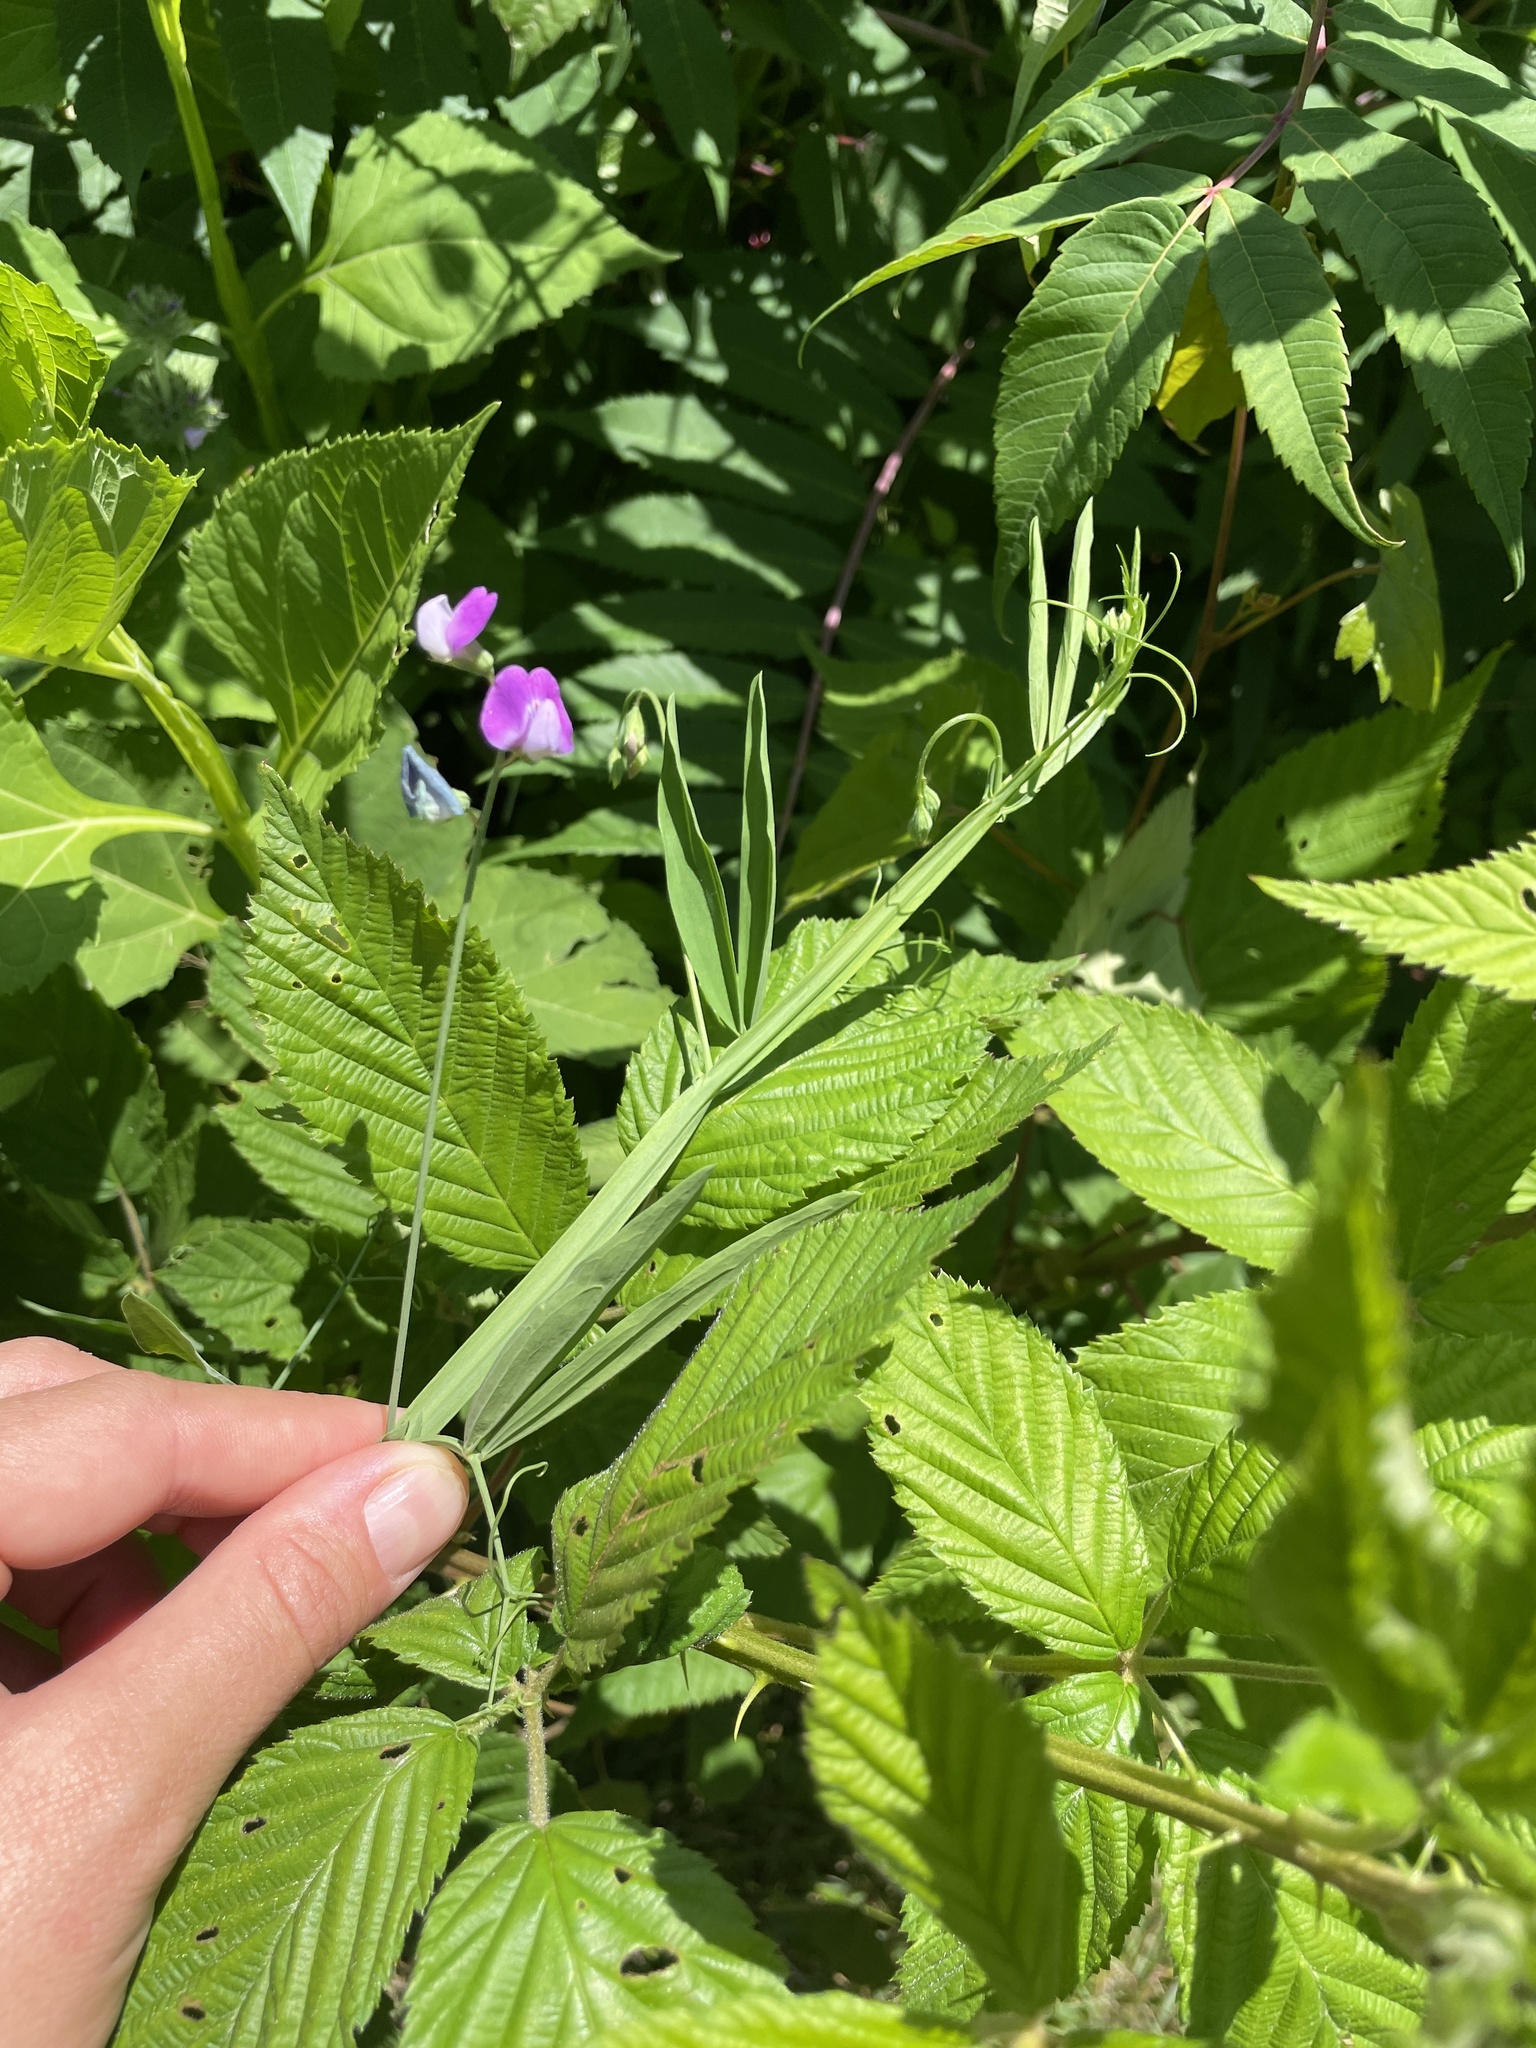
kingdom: Plantae
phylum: Tracheophyta
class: Magnoliopsida
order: Fabales
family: Fabaceae
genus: Lathyrus
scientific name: Lathyrus hirsutus
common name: Hairy vetchling
